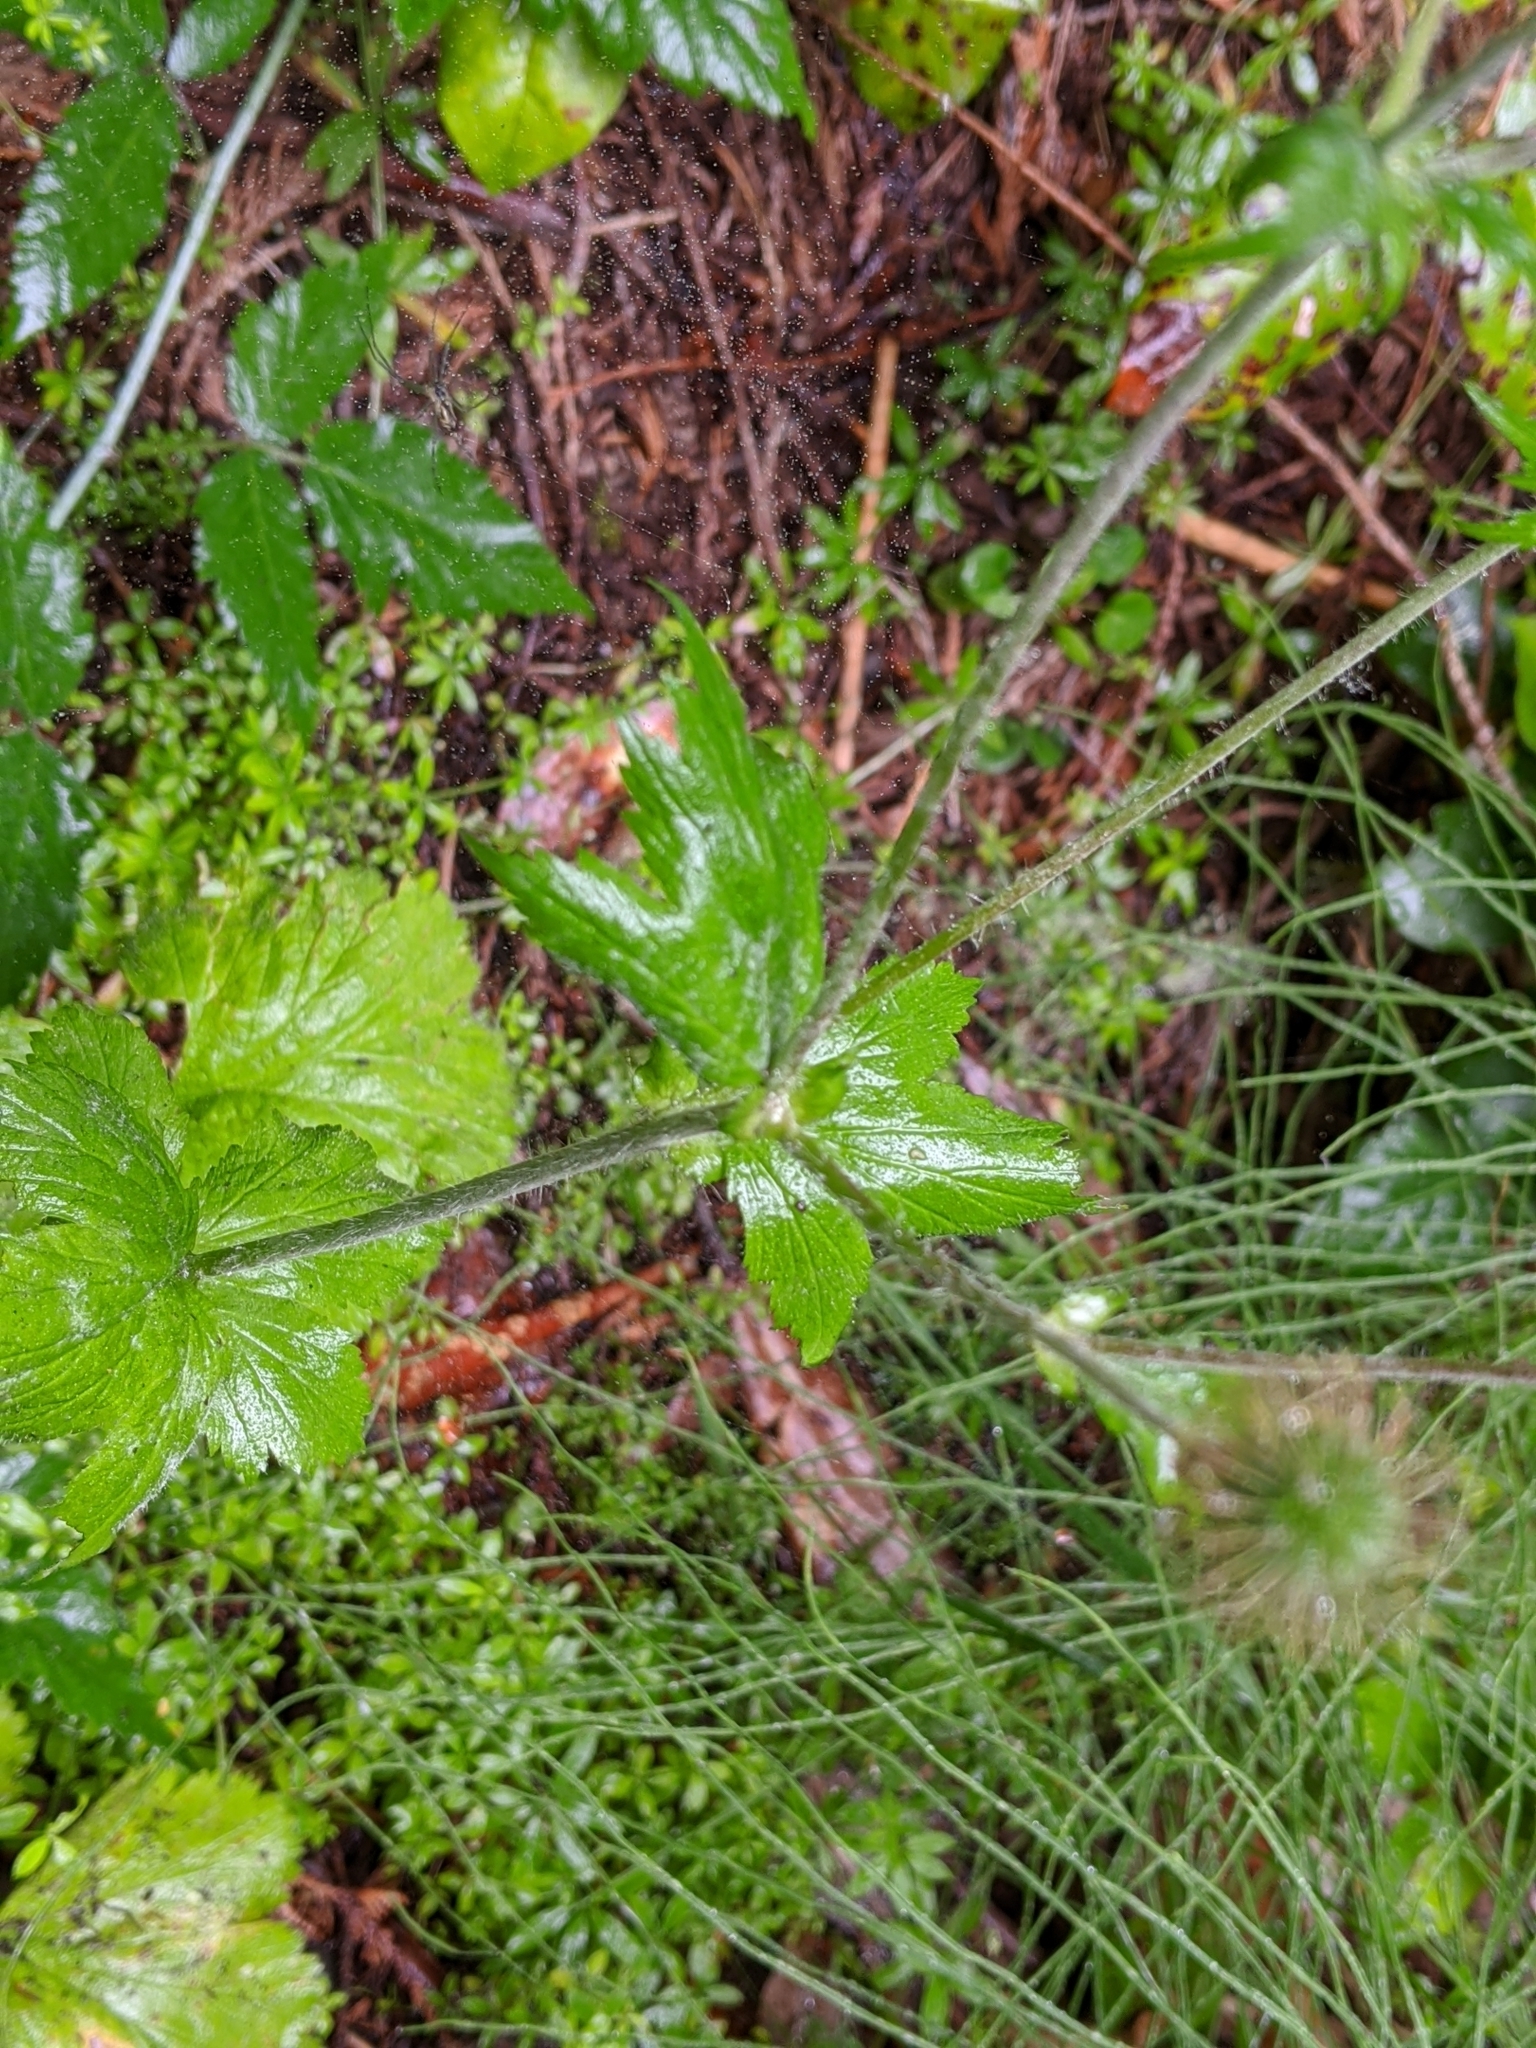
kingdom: Plantae
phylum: Tracheophyta
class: Magnoliopsida
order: Rosales
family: Rosaceae
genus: Geum
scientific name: Geum macrophyllum
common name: Large-leaved avens
